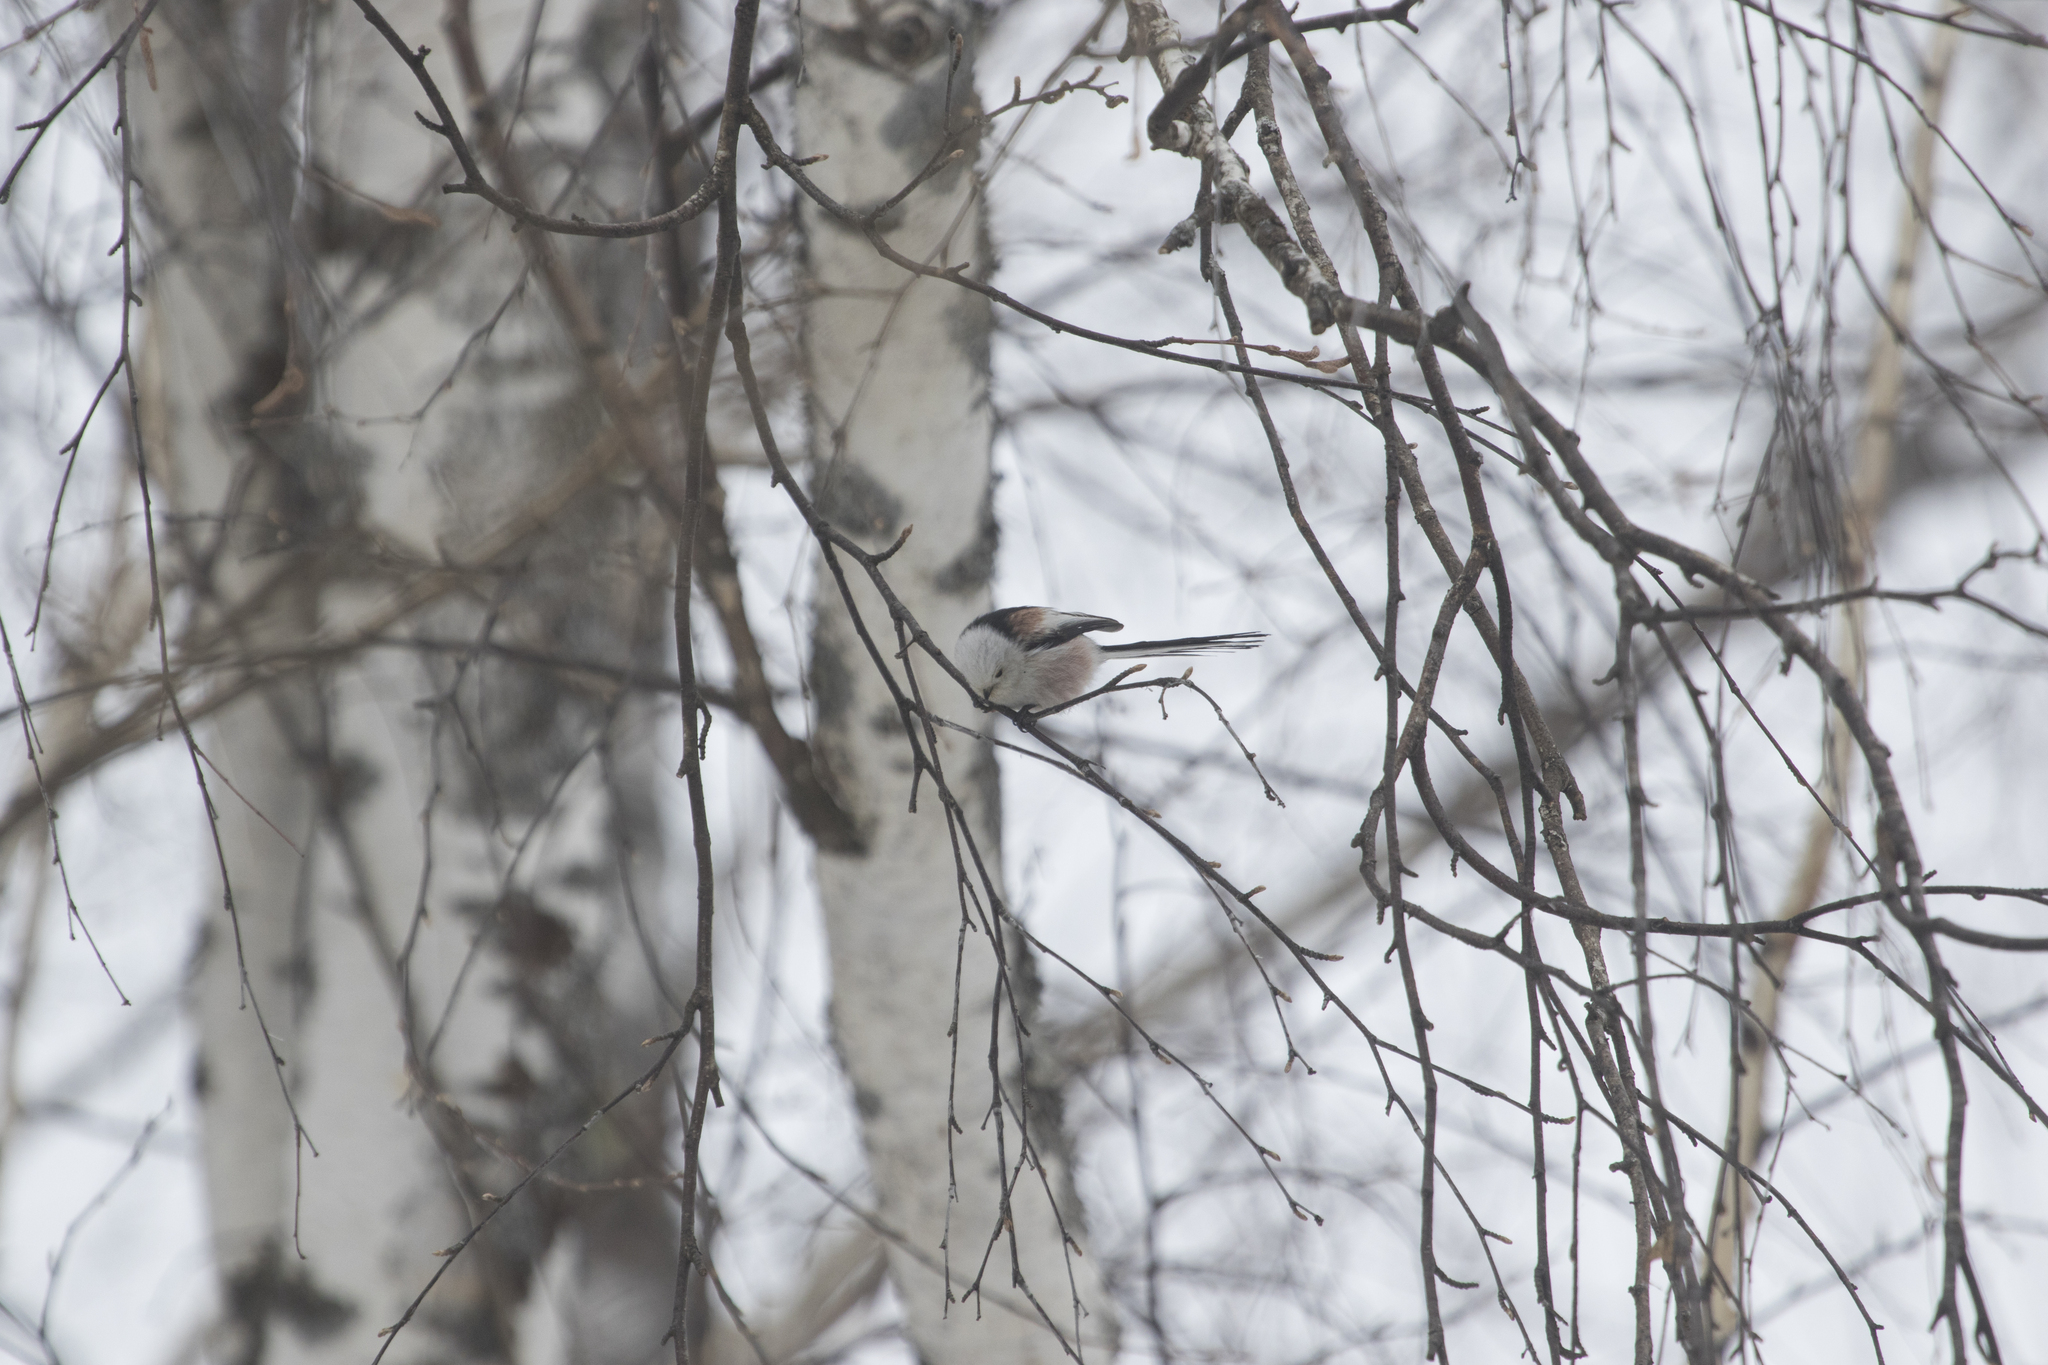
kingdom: Animalia
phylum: Chordata
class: Aves
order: Passeriformes
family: Aegithalidae
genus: Aegithalos
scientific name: Aegithalos caudatus
